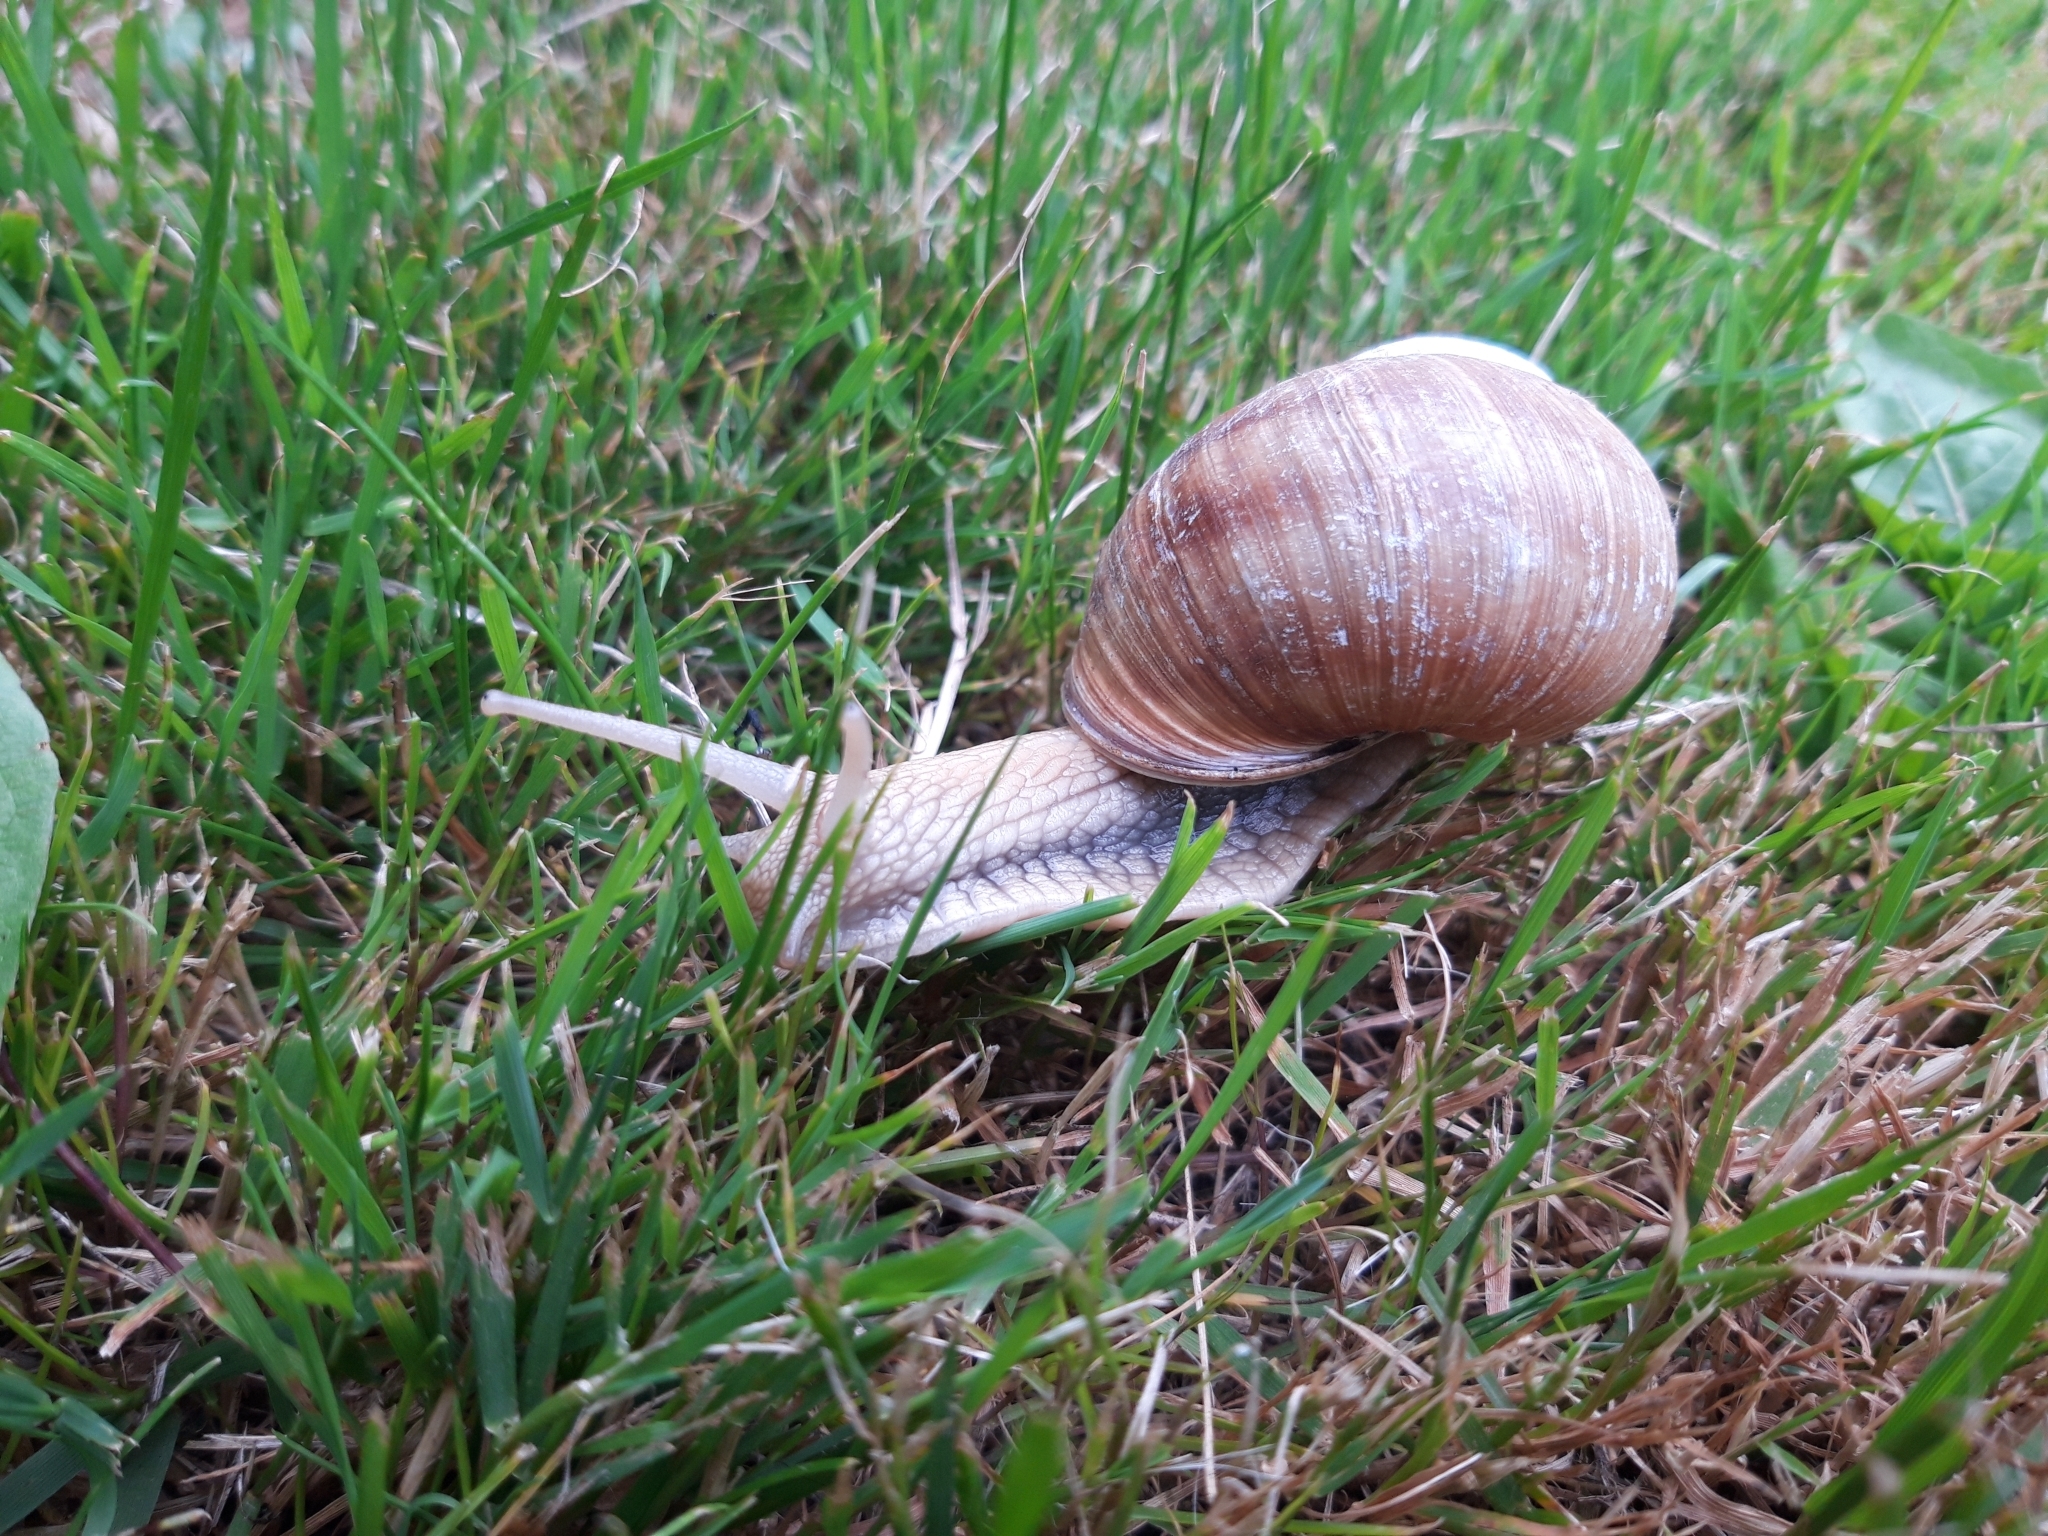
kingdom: Animalia
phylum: Mollusca
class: Gastropoda
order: Stylommatophora
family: Helicidae
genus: Helix
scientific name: Helix pomatia
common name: Roman snail
